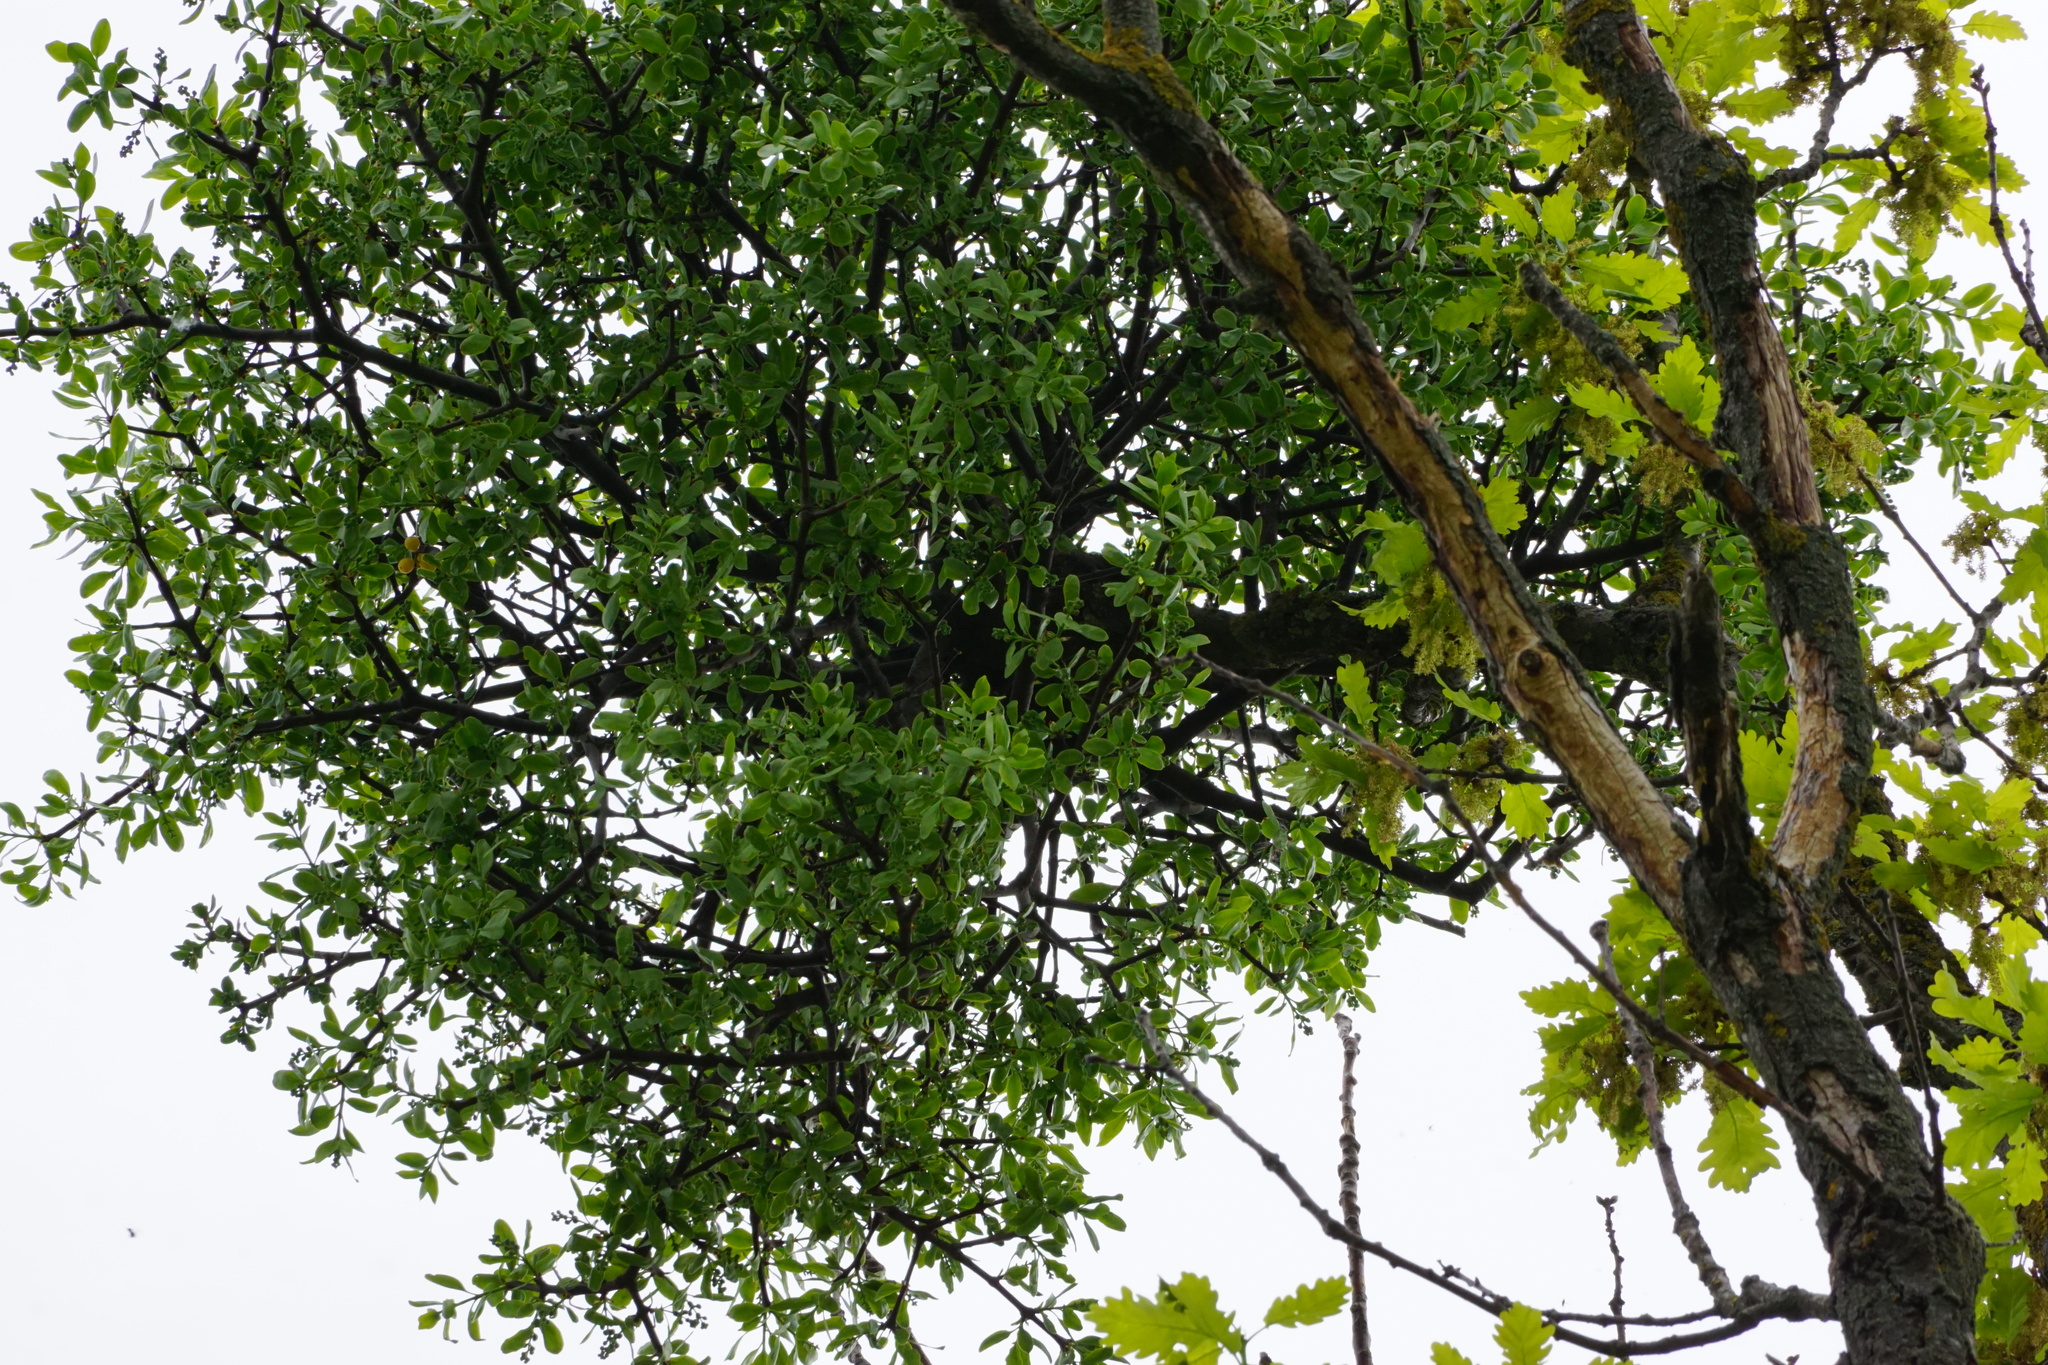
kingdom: Plantae
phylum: Tracheophyta
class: Magnoliopsida
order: Santalales
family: Loranthaceae
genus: Loranthus
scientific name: Loranthus europaeus
